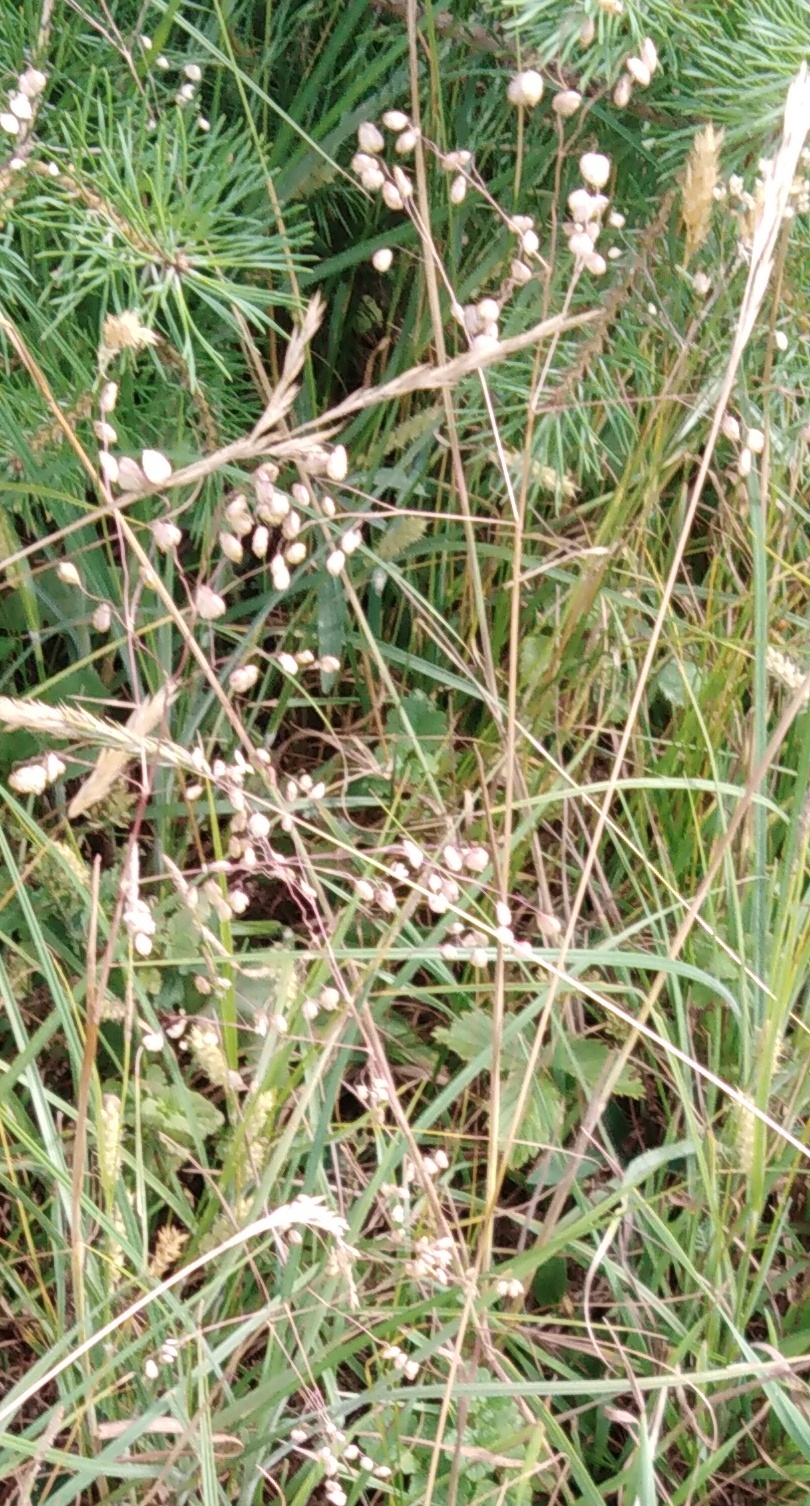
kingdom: Plantae
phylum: Tracheophyta
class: Liliopsida
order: Poales
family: Poaceae
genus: Briza
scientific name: Briza media
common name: Quaking grass
